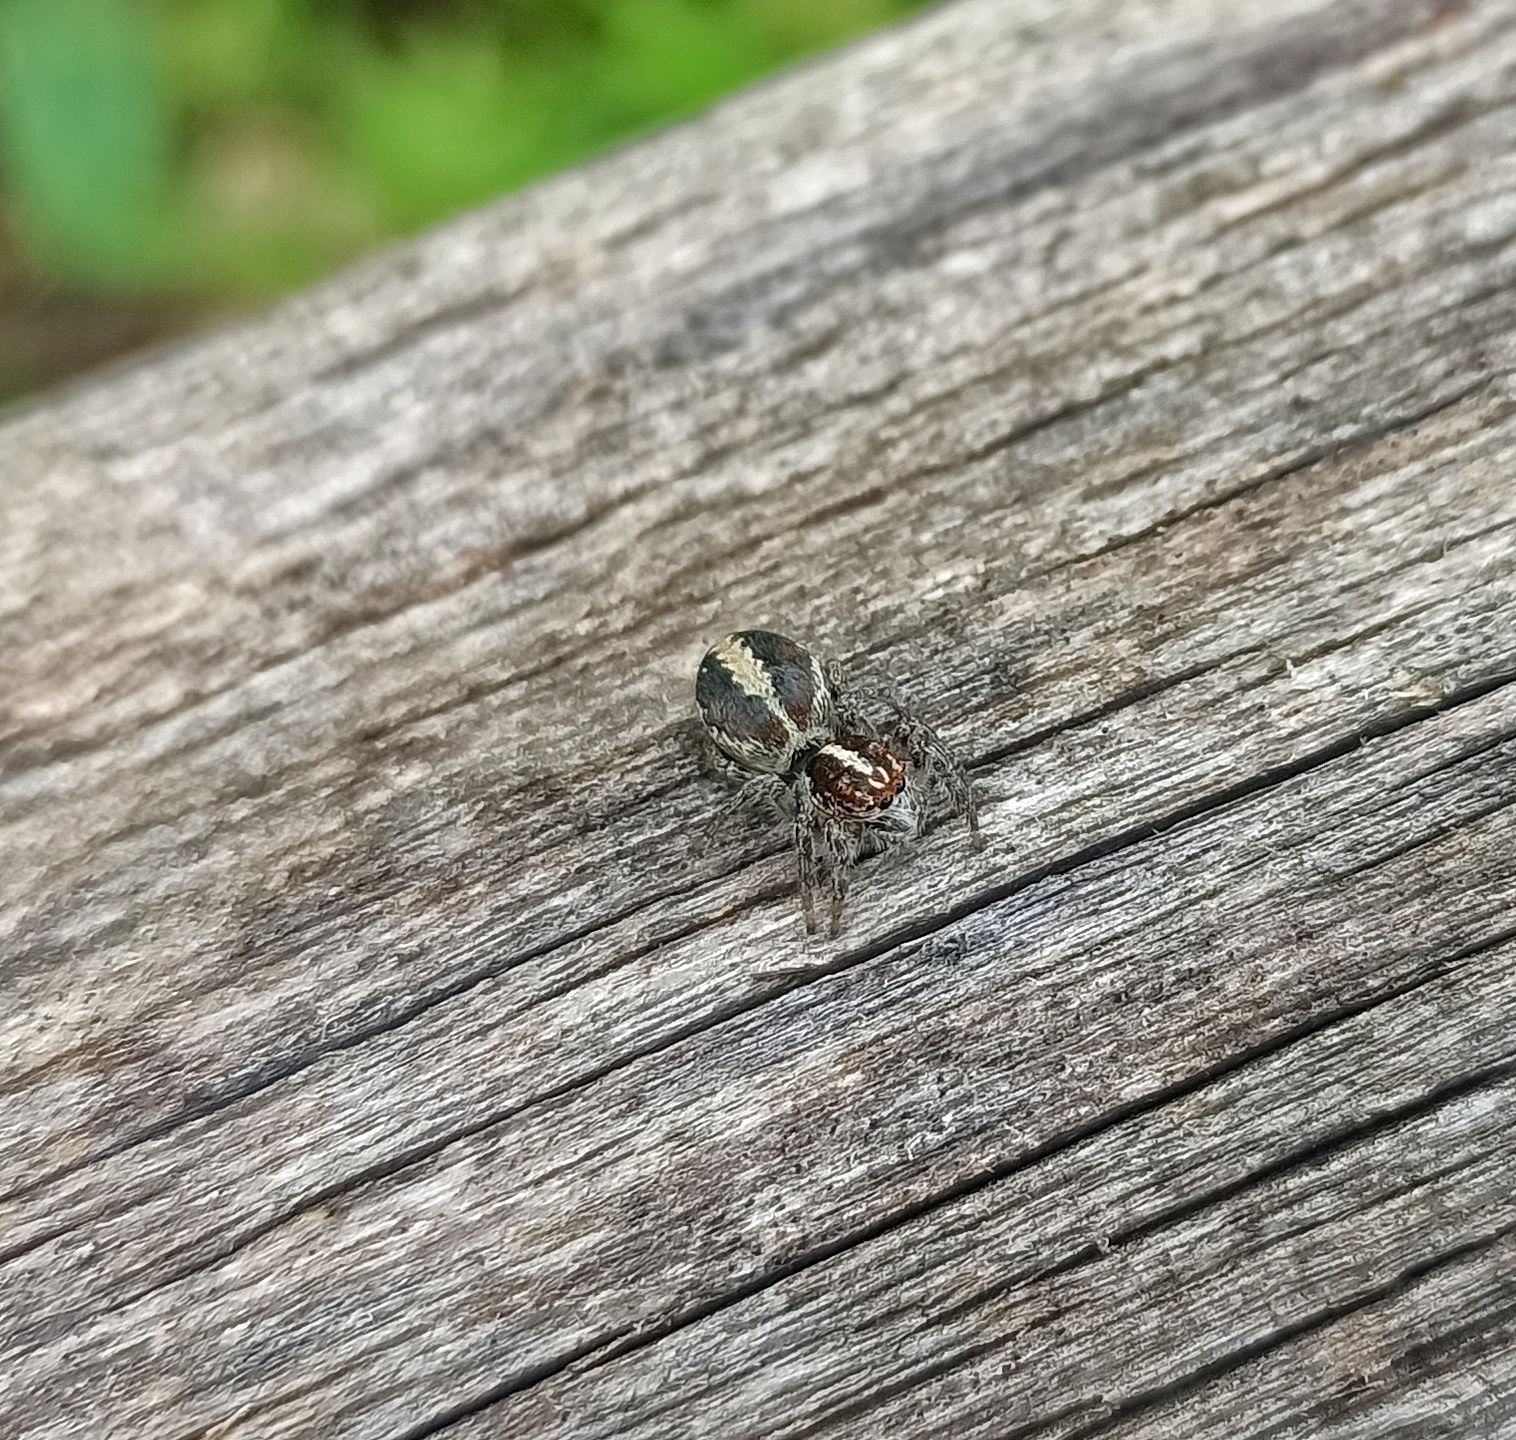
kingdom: Animalia
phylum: Arthropoda
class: Arachnida
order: Araneae
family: Salticidae
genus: Frigga
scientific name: Frigga crocuta
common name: Jumping spiders
